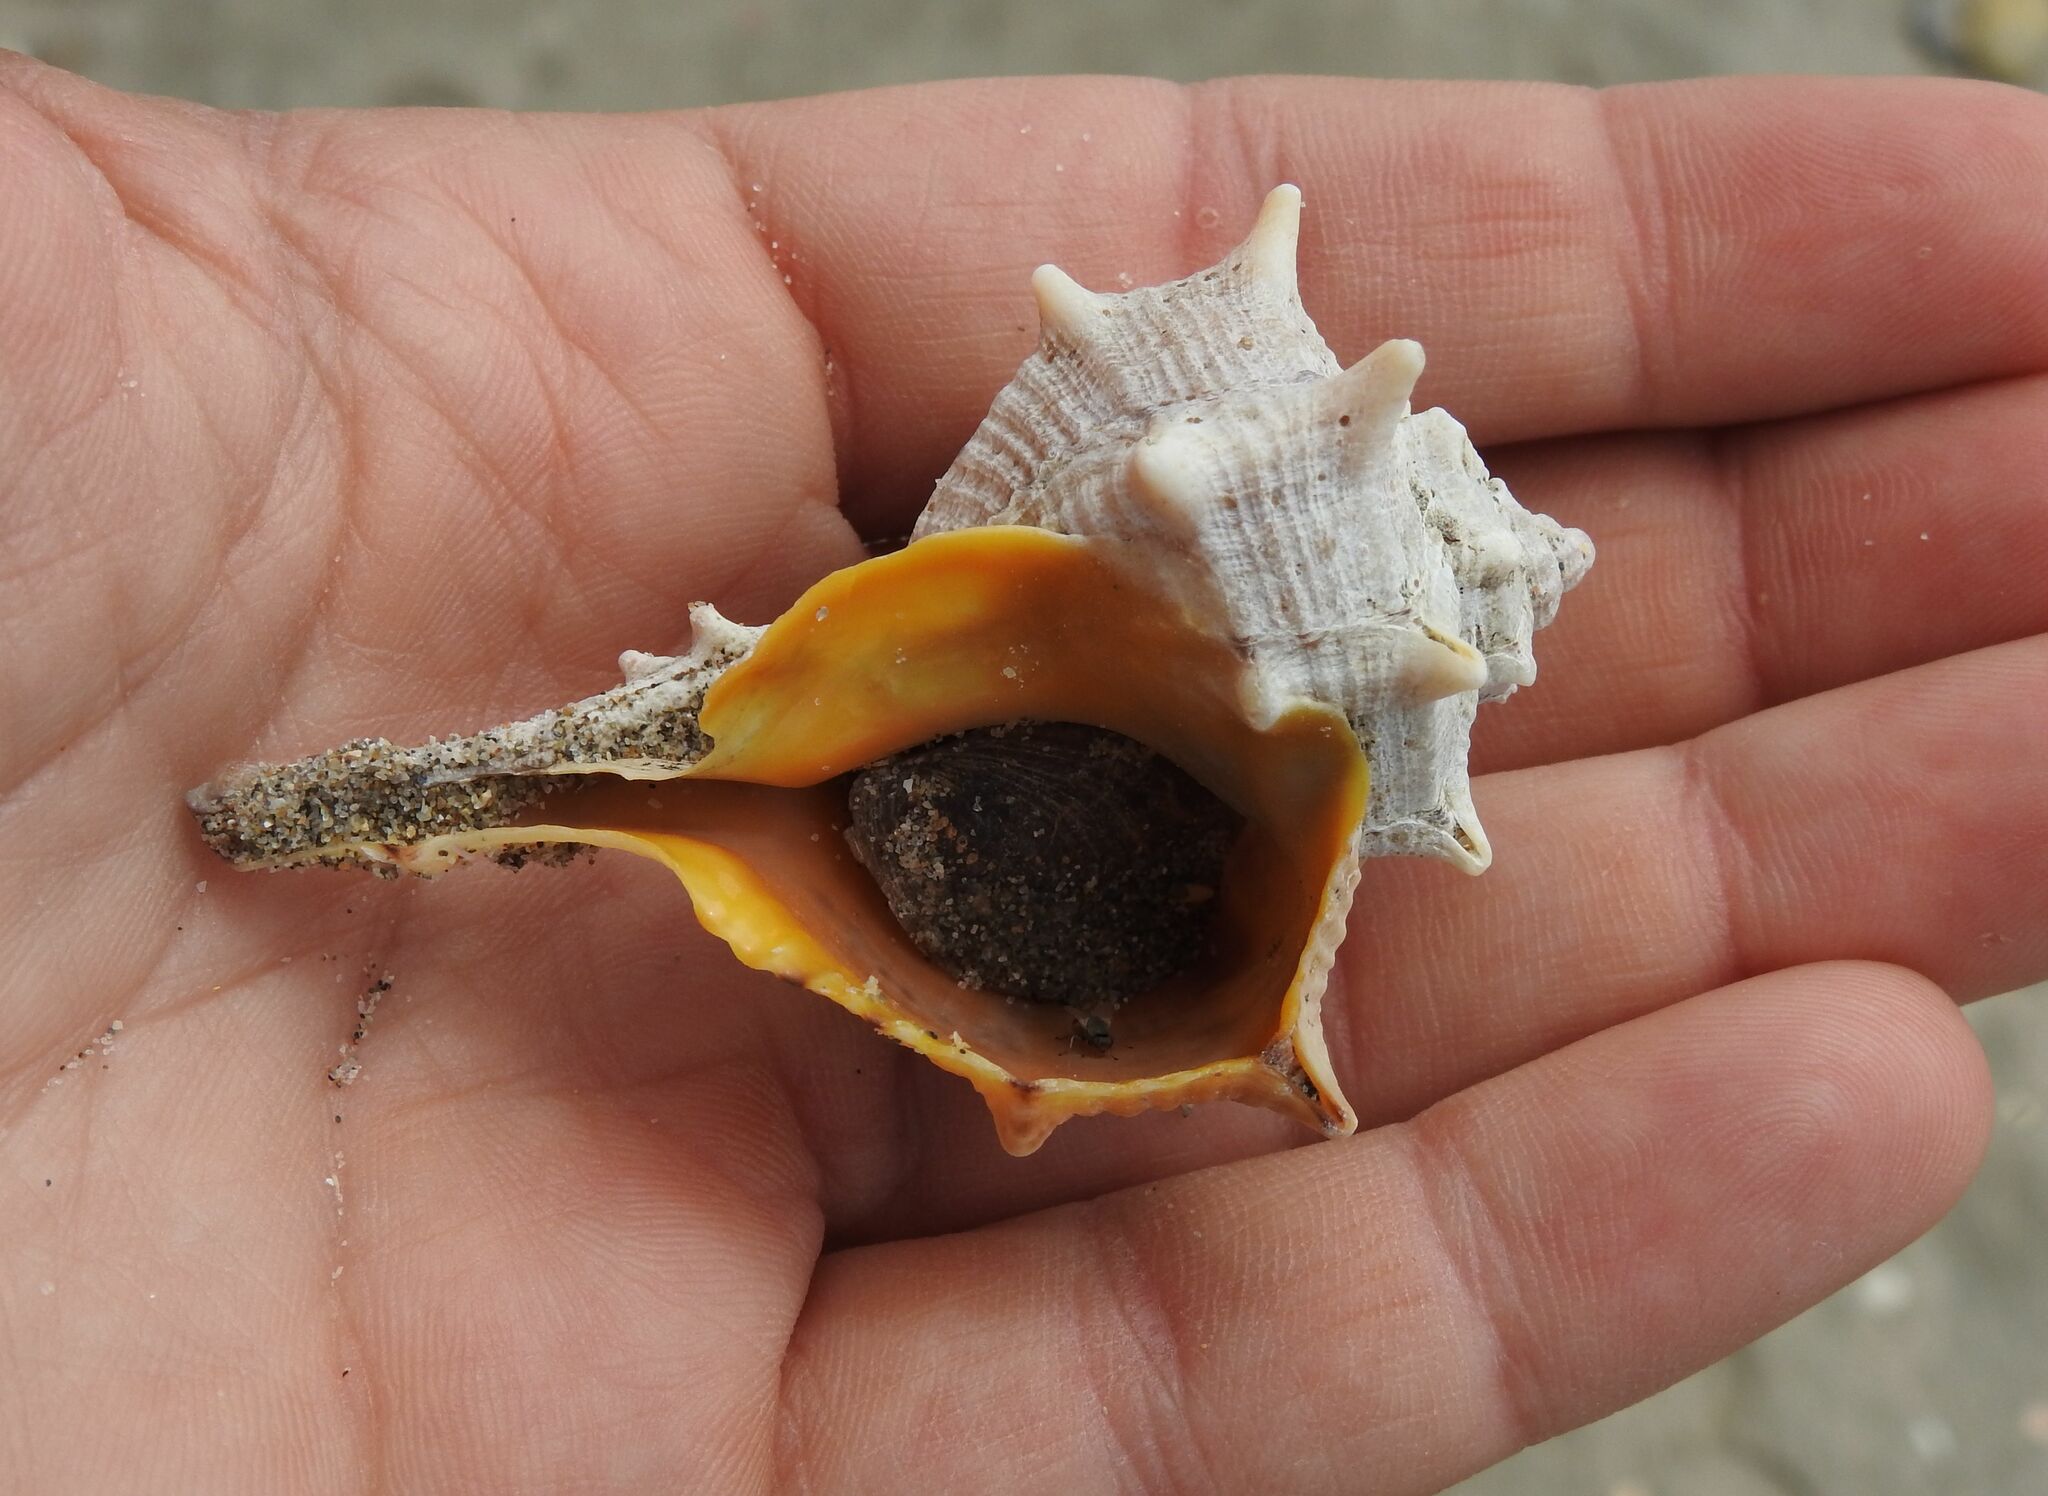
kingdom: Animalia
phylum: Mollusca
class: Gastropoda
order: Neogastropoda
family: Muricidae
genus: Bolinus
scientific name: Bolinus brandaris
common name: Dye murex
